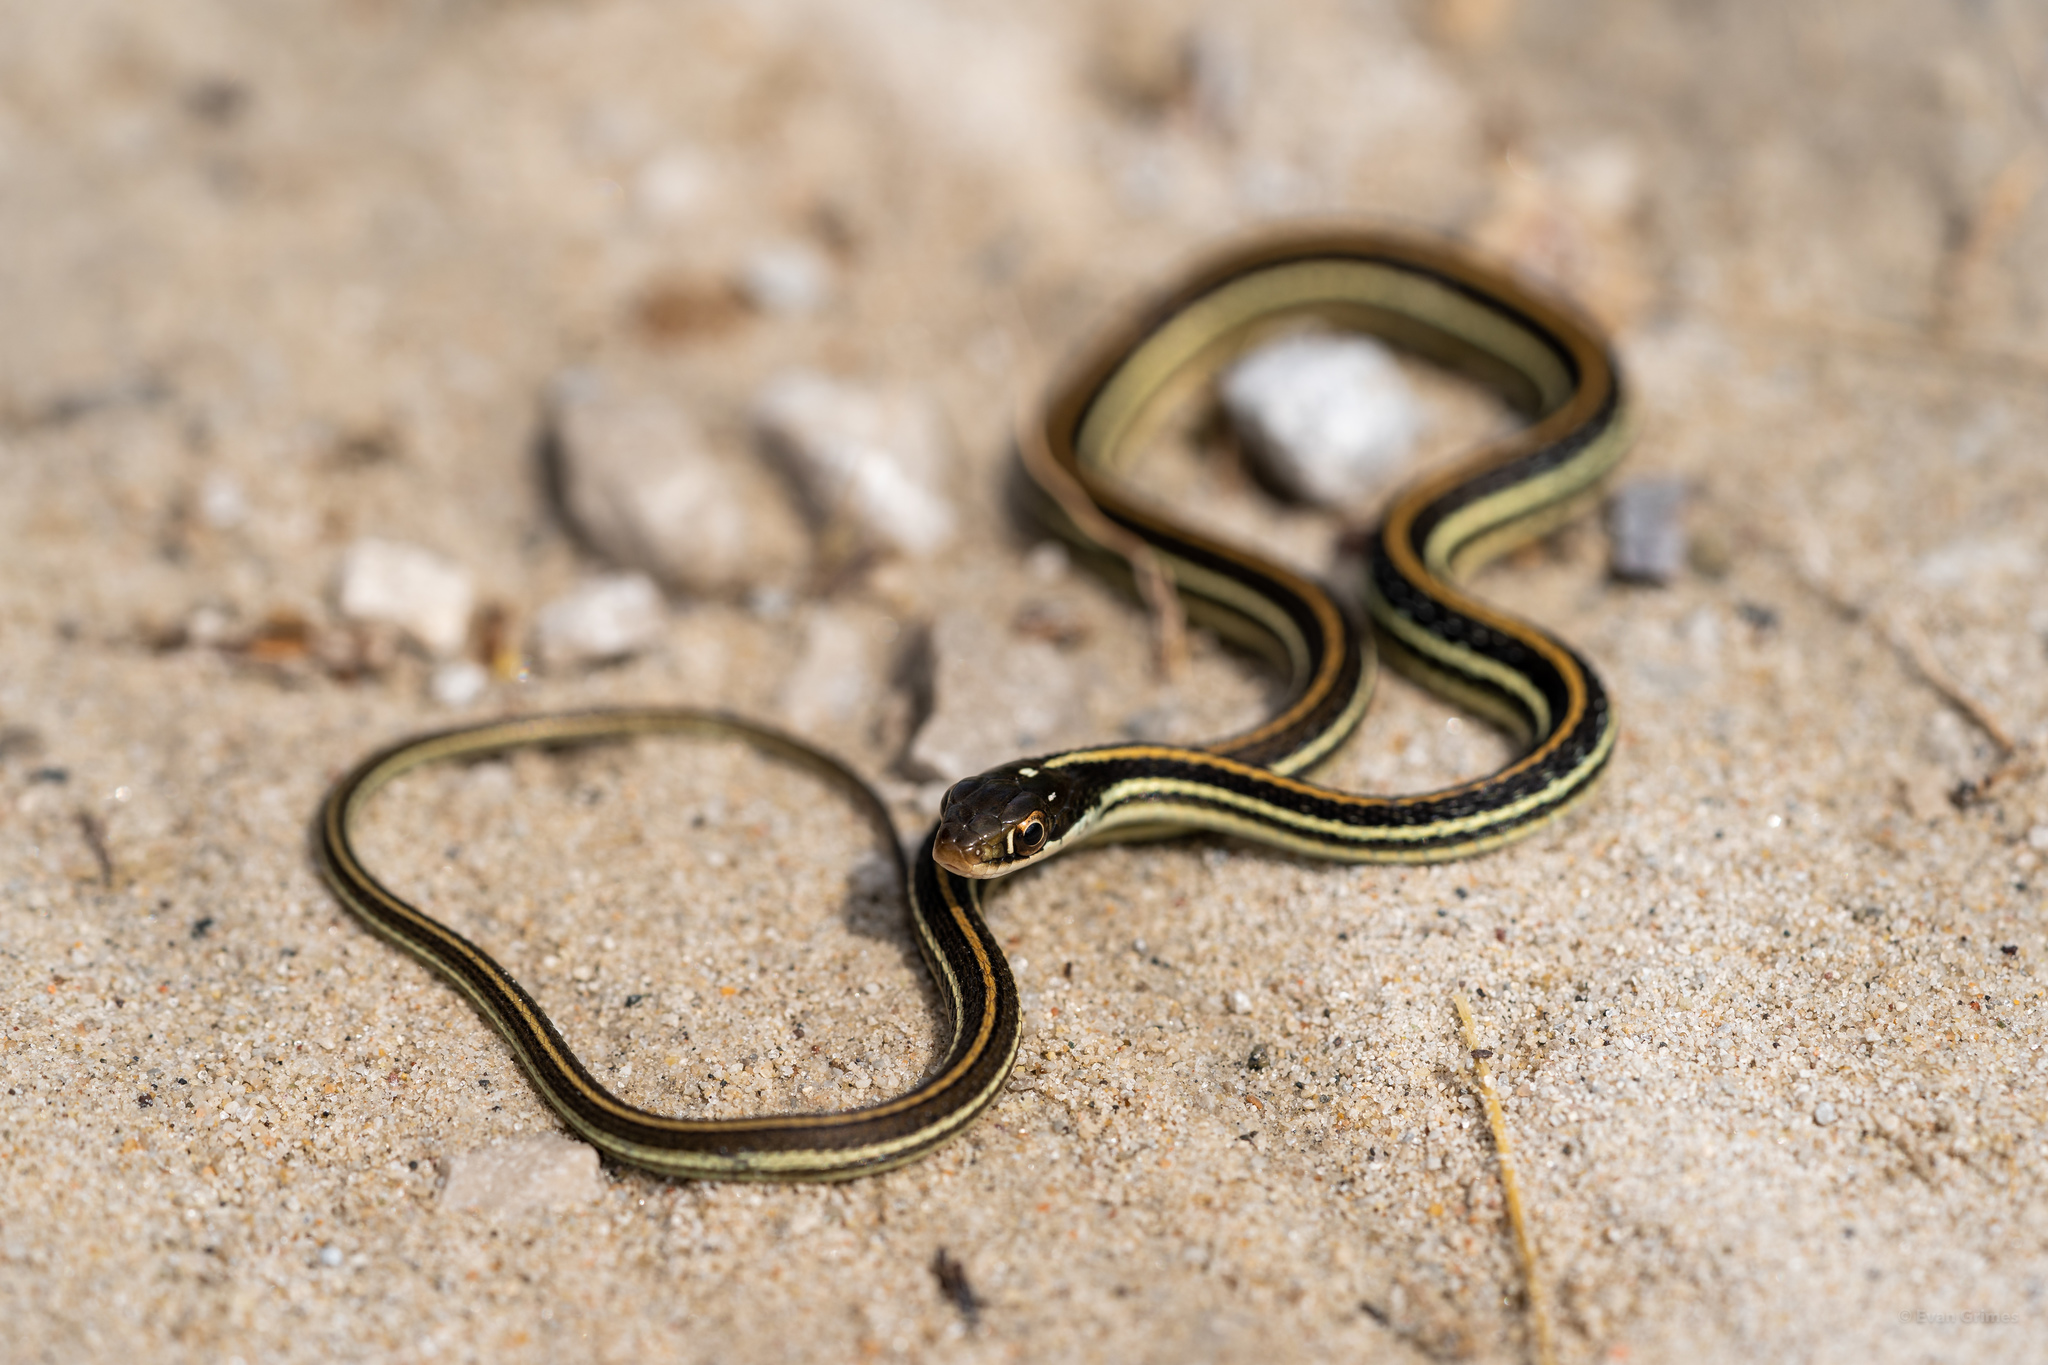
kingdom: Animalia
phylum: Chordata
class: Squamata
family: Colubridae
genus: Thamnophis
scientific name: Thamnophis proximus
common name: Western ribbon snake
